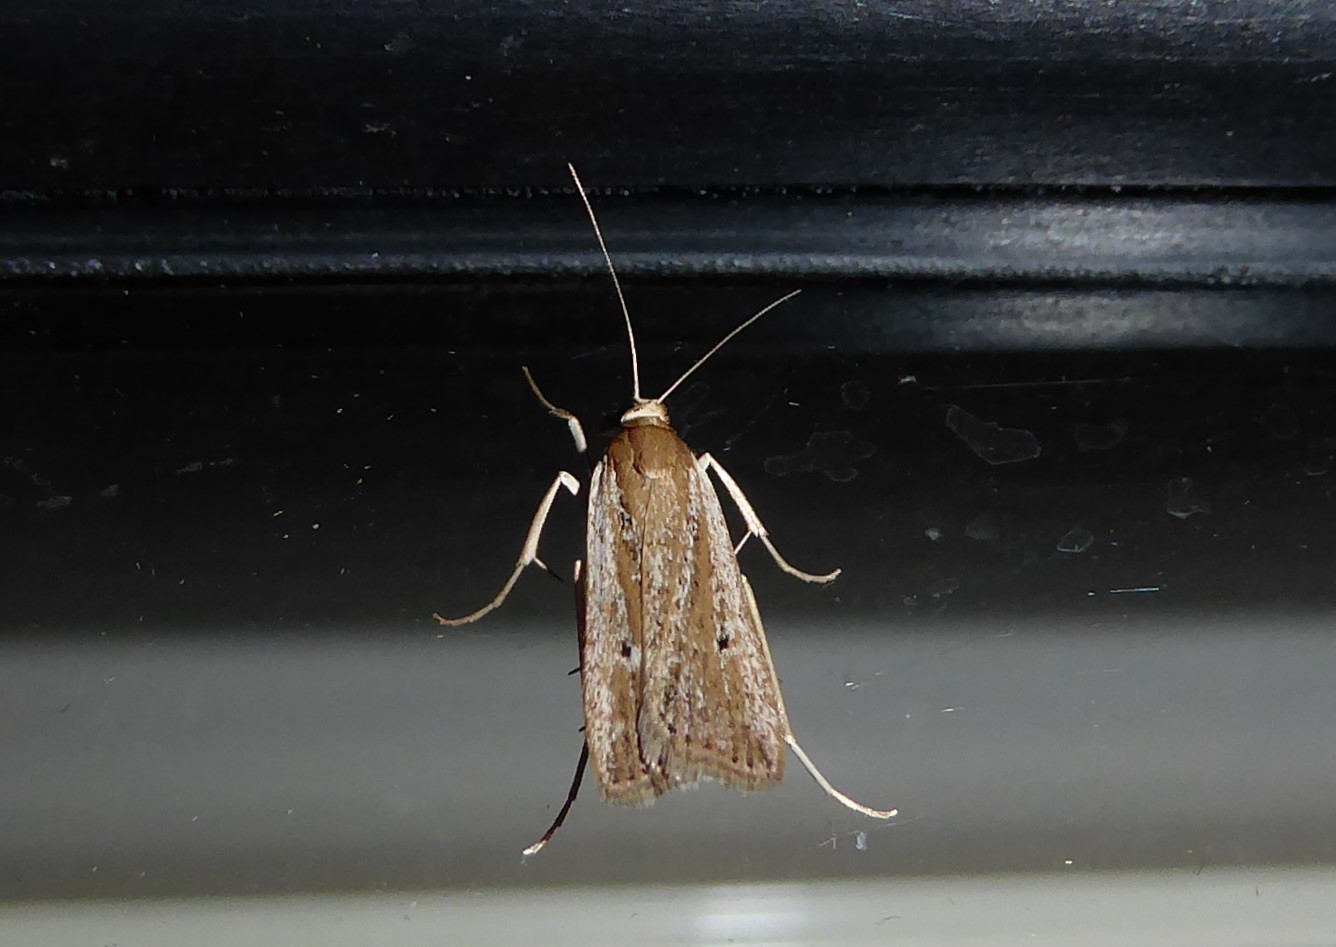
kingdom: Animalia
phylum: Arthropoda
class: Insecta
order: Lepidoptera
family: Crambidae
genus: Eudonia
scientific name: Eudonia sabulosella
